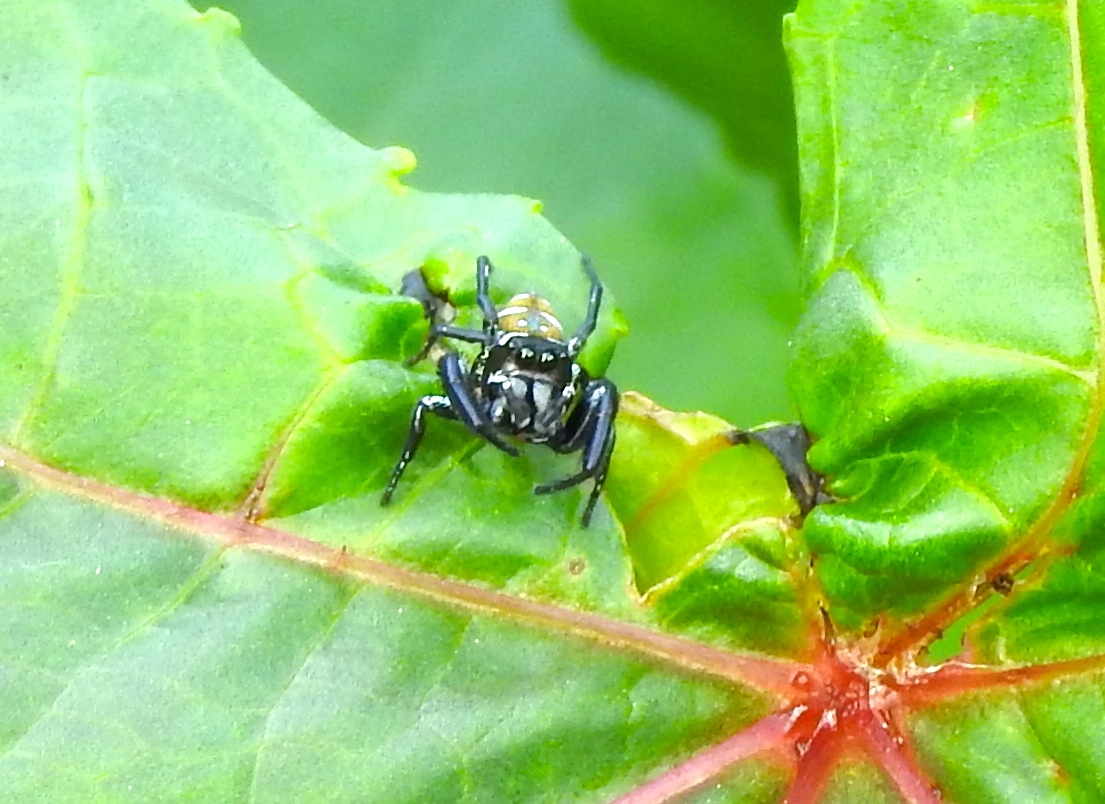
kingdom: Animalia
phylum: Arthropoda
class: Arachnida
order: Araneae
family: Salticidae
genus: Sassacus
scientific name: Sassacus
